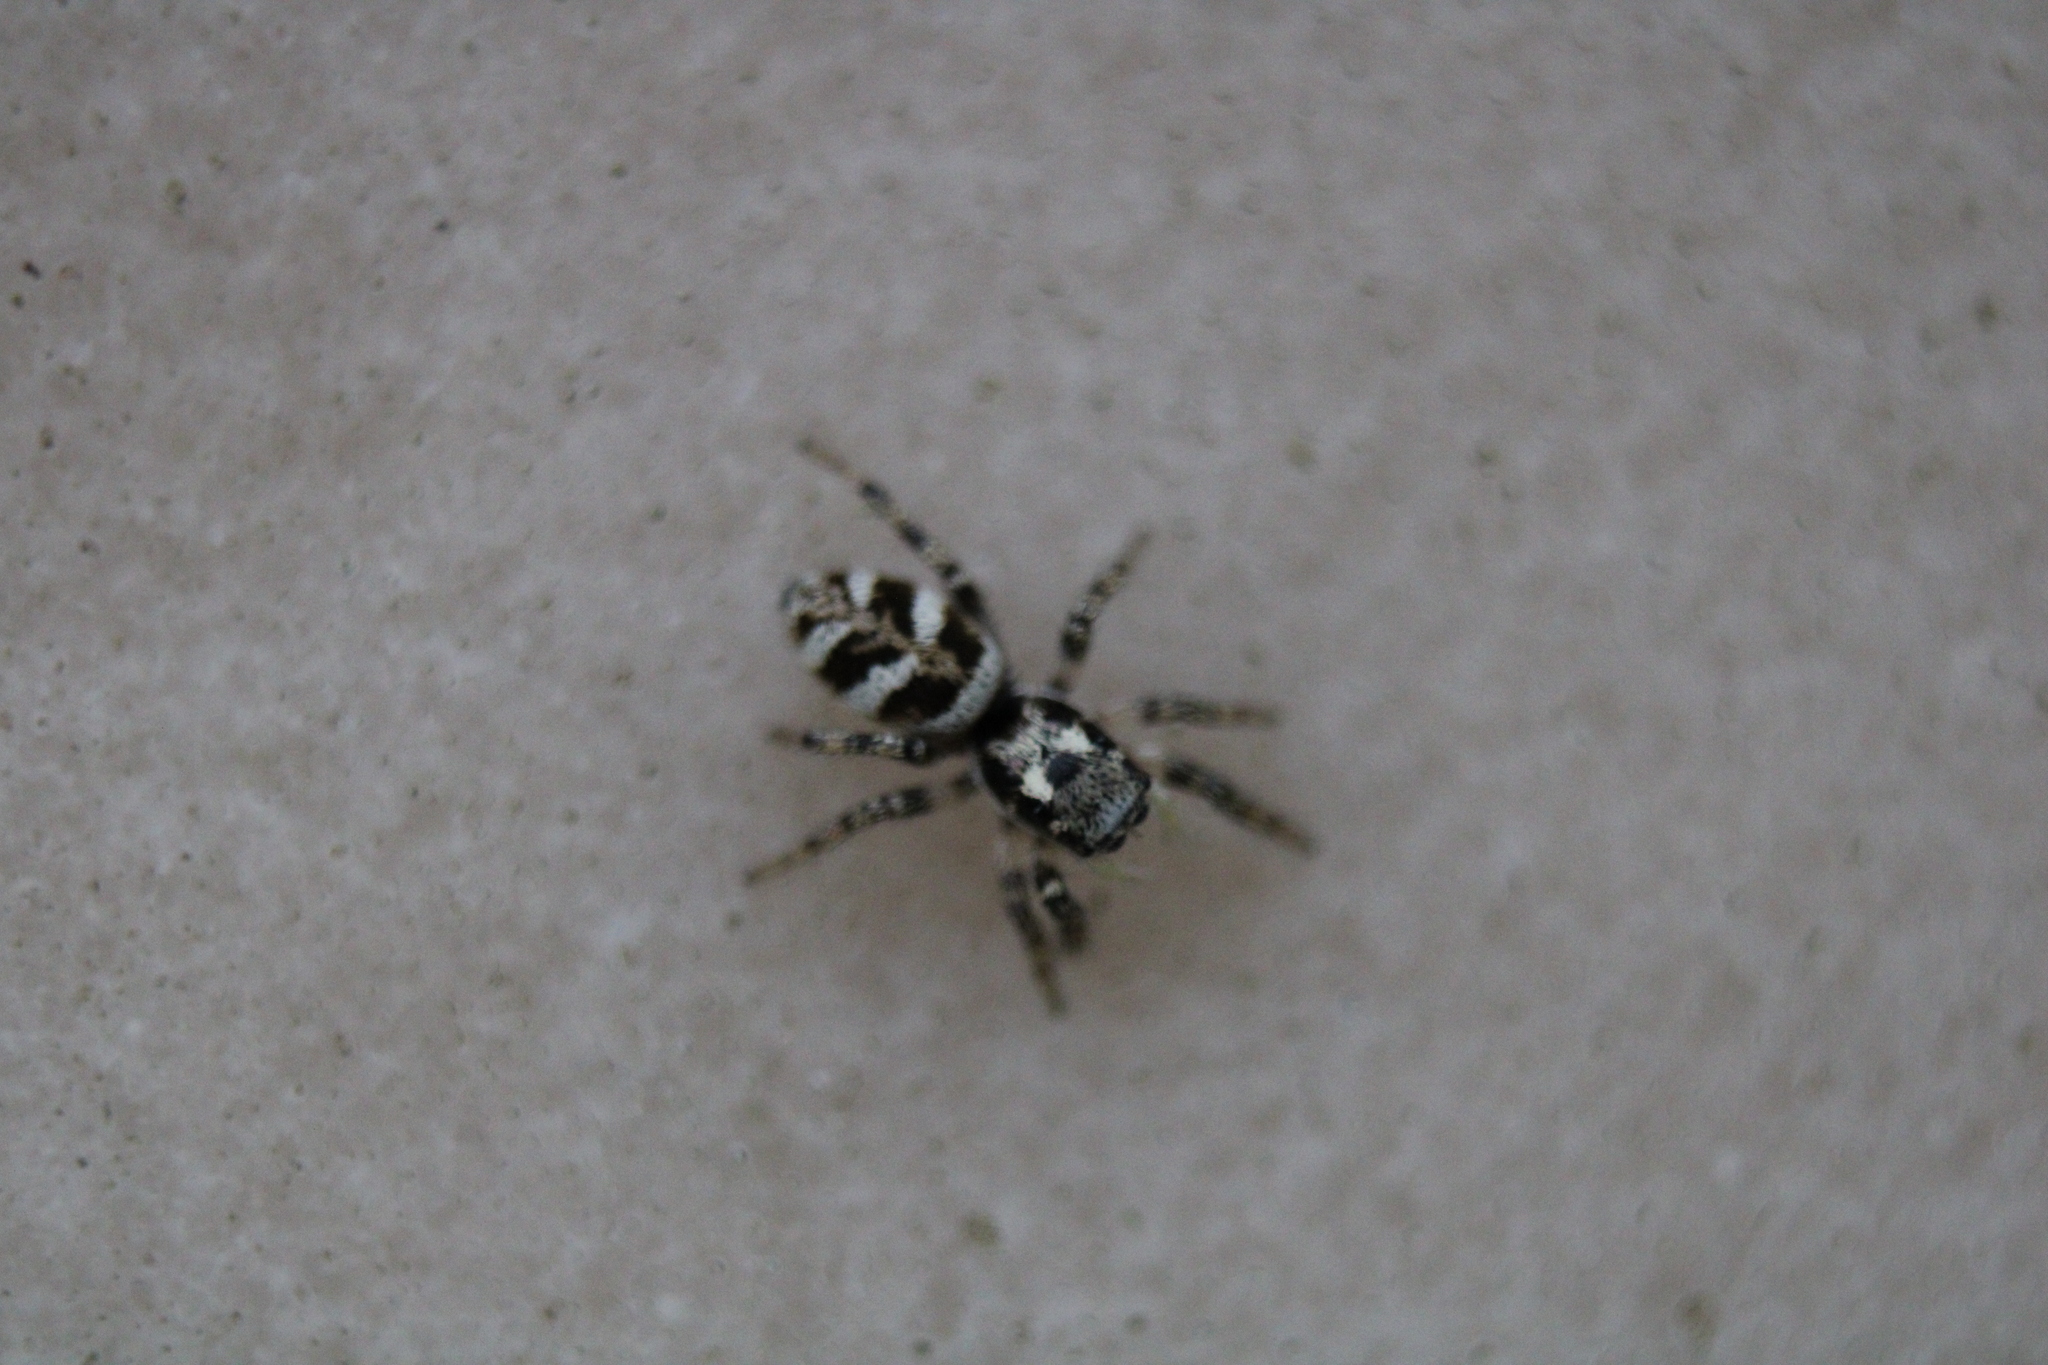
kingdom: Animalia
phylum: Arthropoda
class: Arachnida
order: Araneae
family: Salticidae
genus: Salticus
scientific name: Salticus scenicus
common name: Zebra jumper
